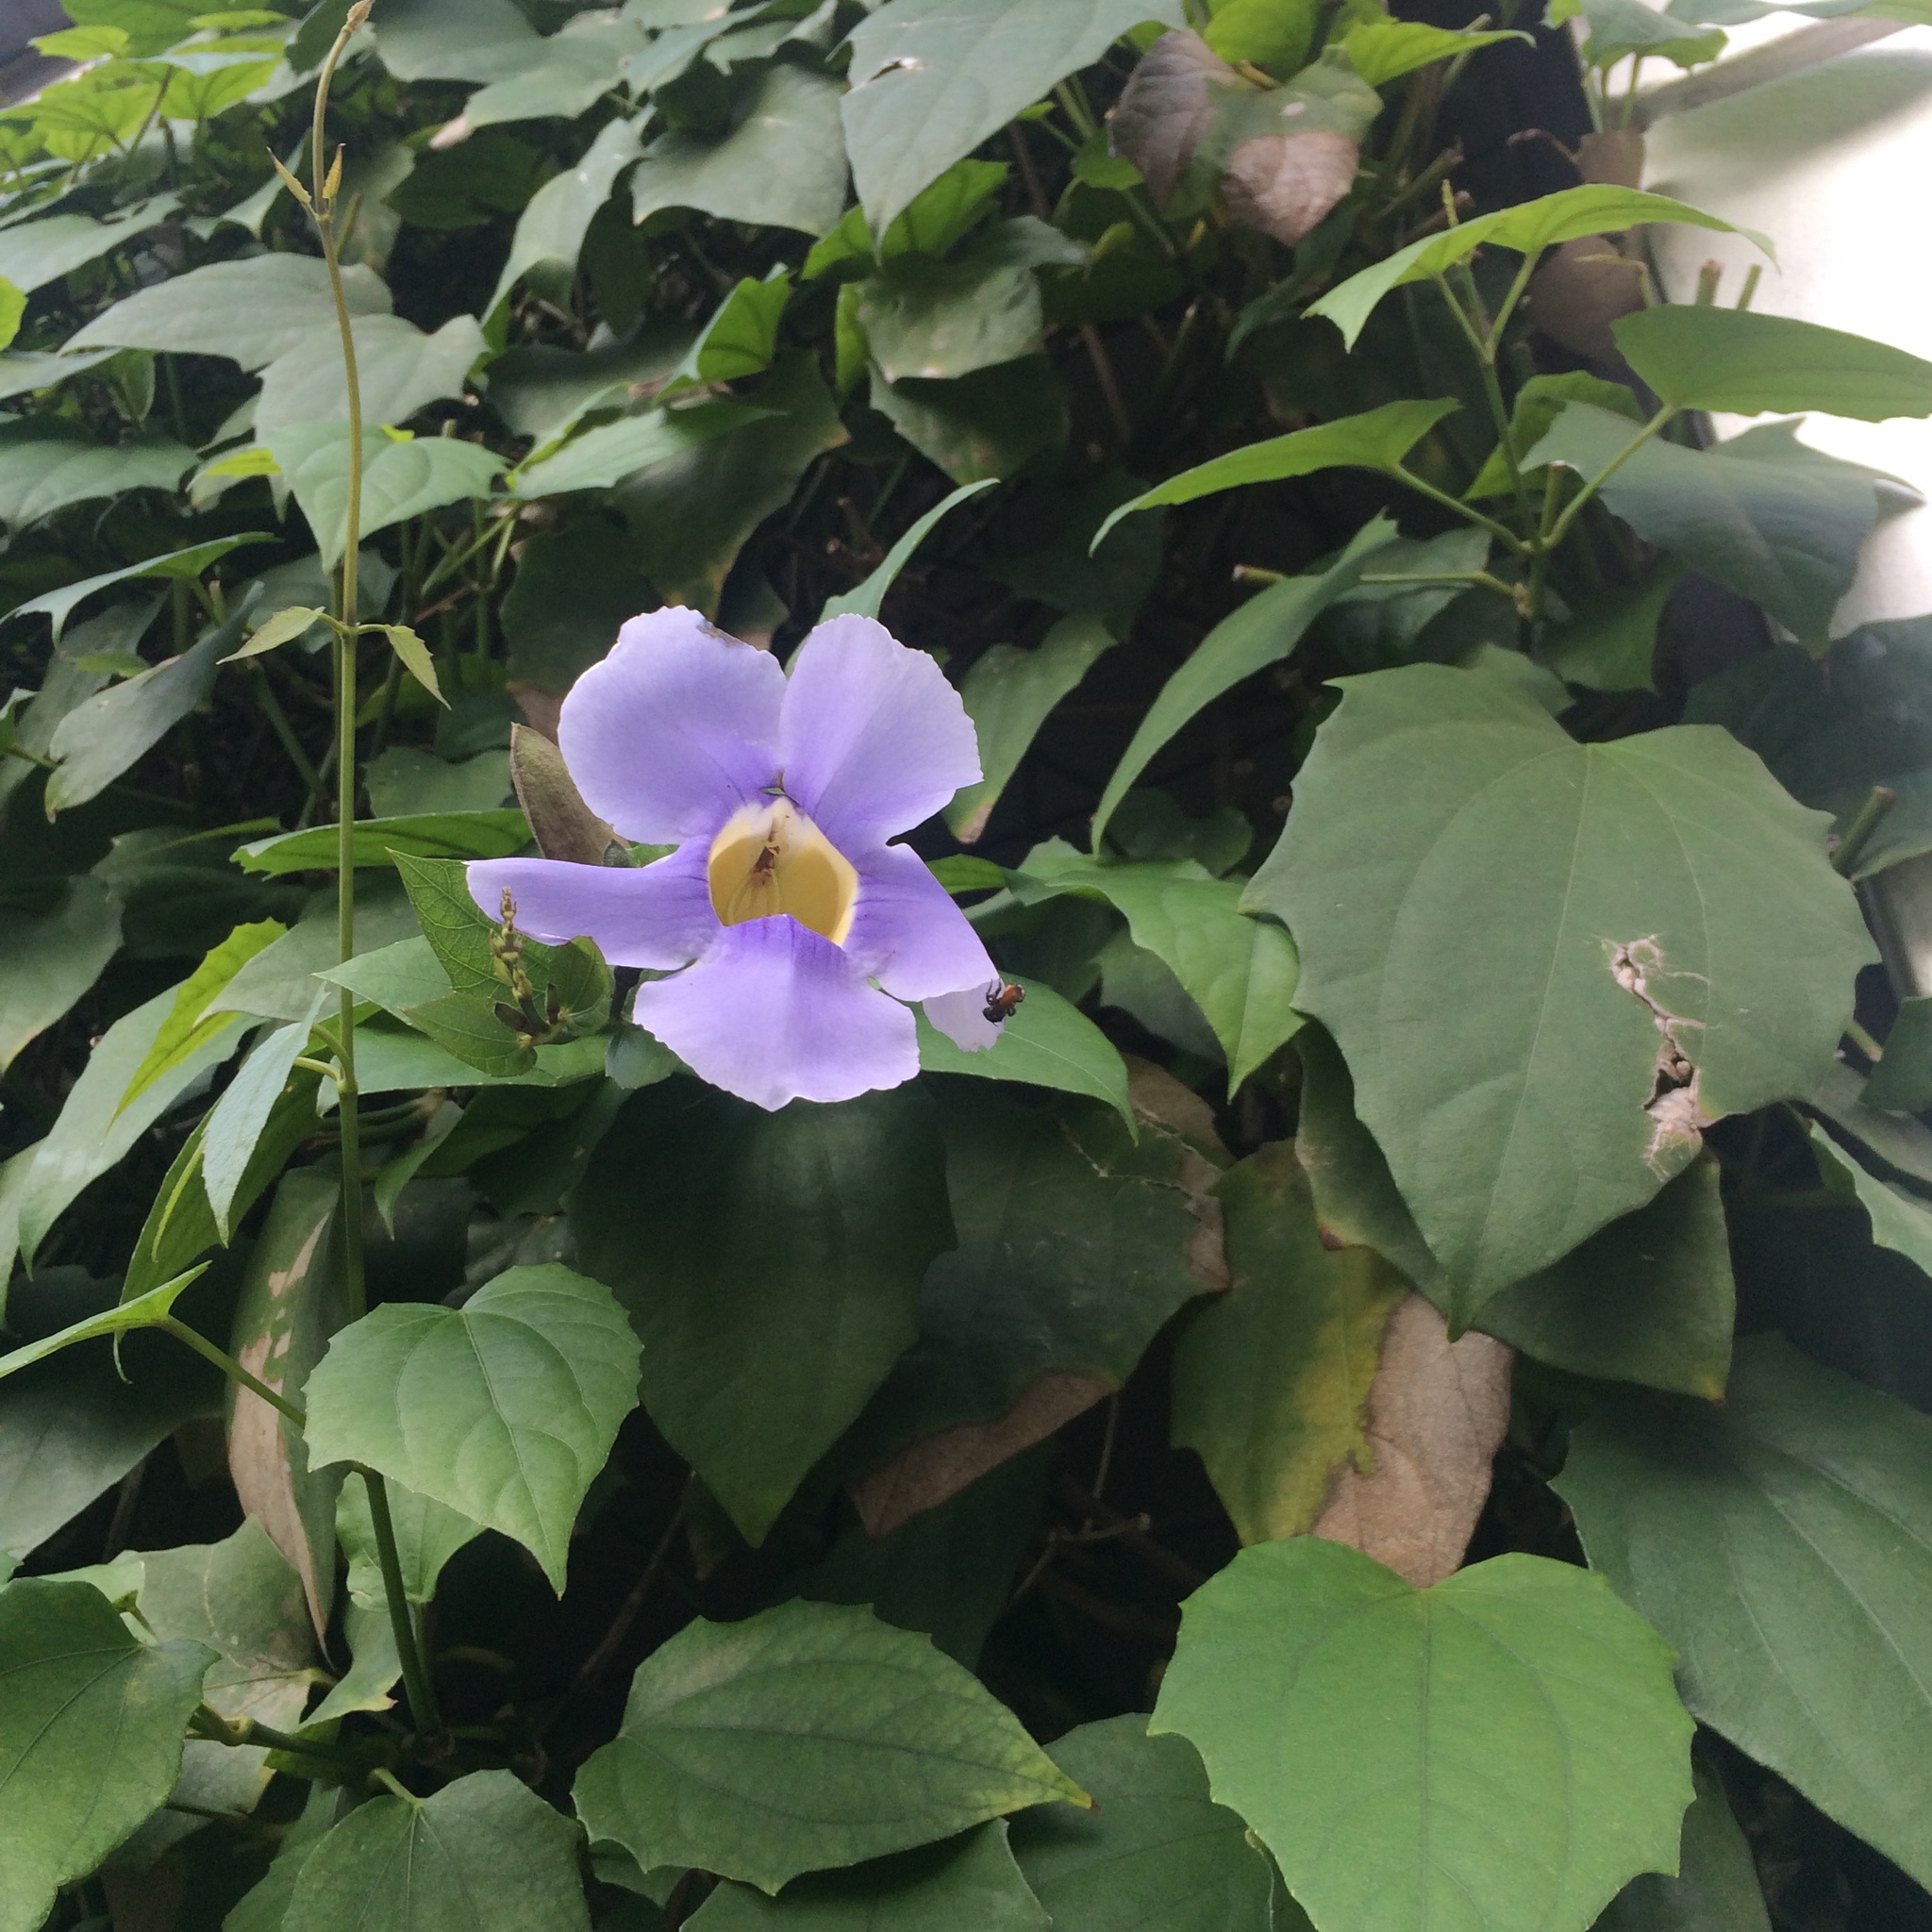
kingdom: Plantae
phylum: Tracheophyta
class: Magnoliopsida
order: Lamiales
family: Acanthaceae
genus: Thunbergia
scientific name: Thunbergia grandiflora
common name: Bengal trumpet
